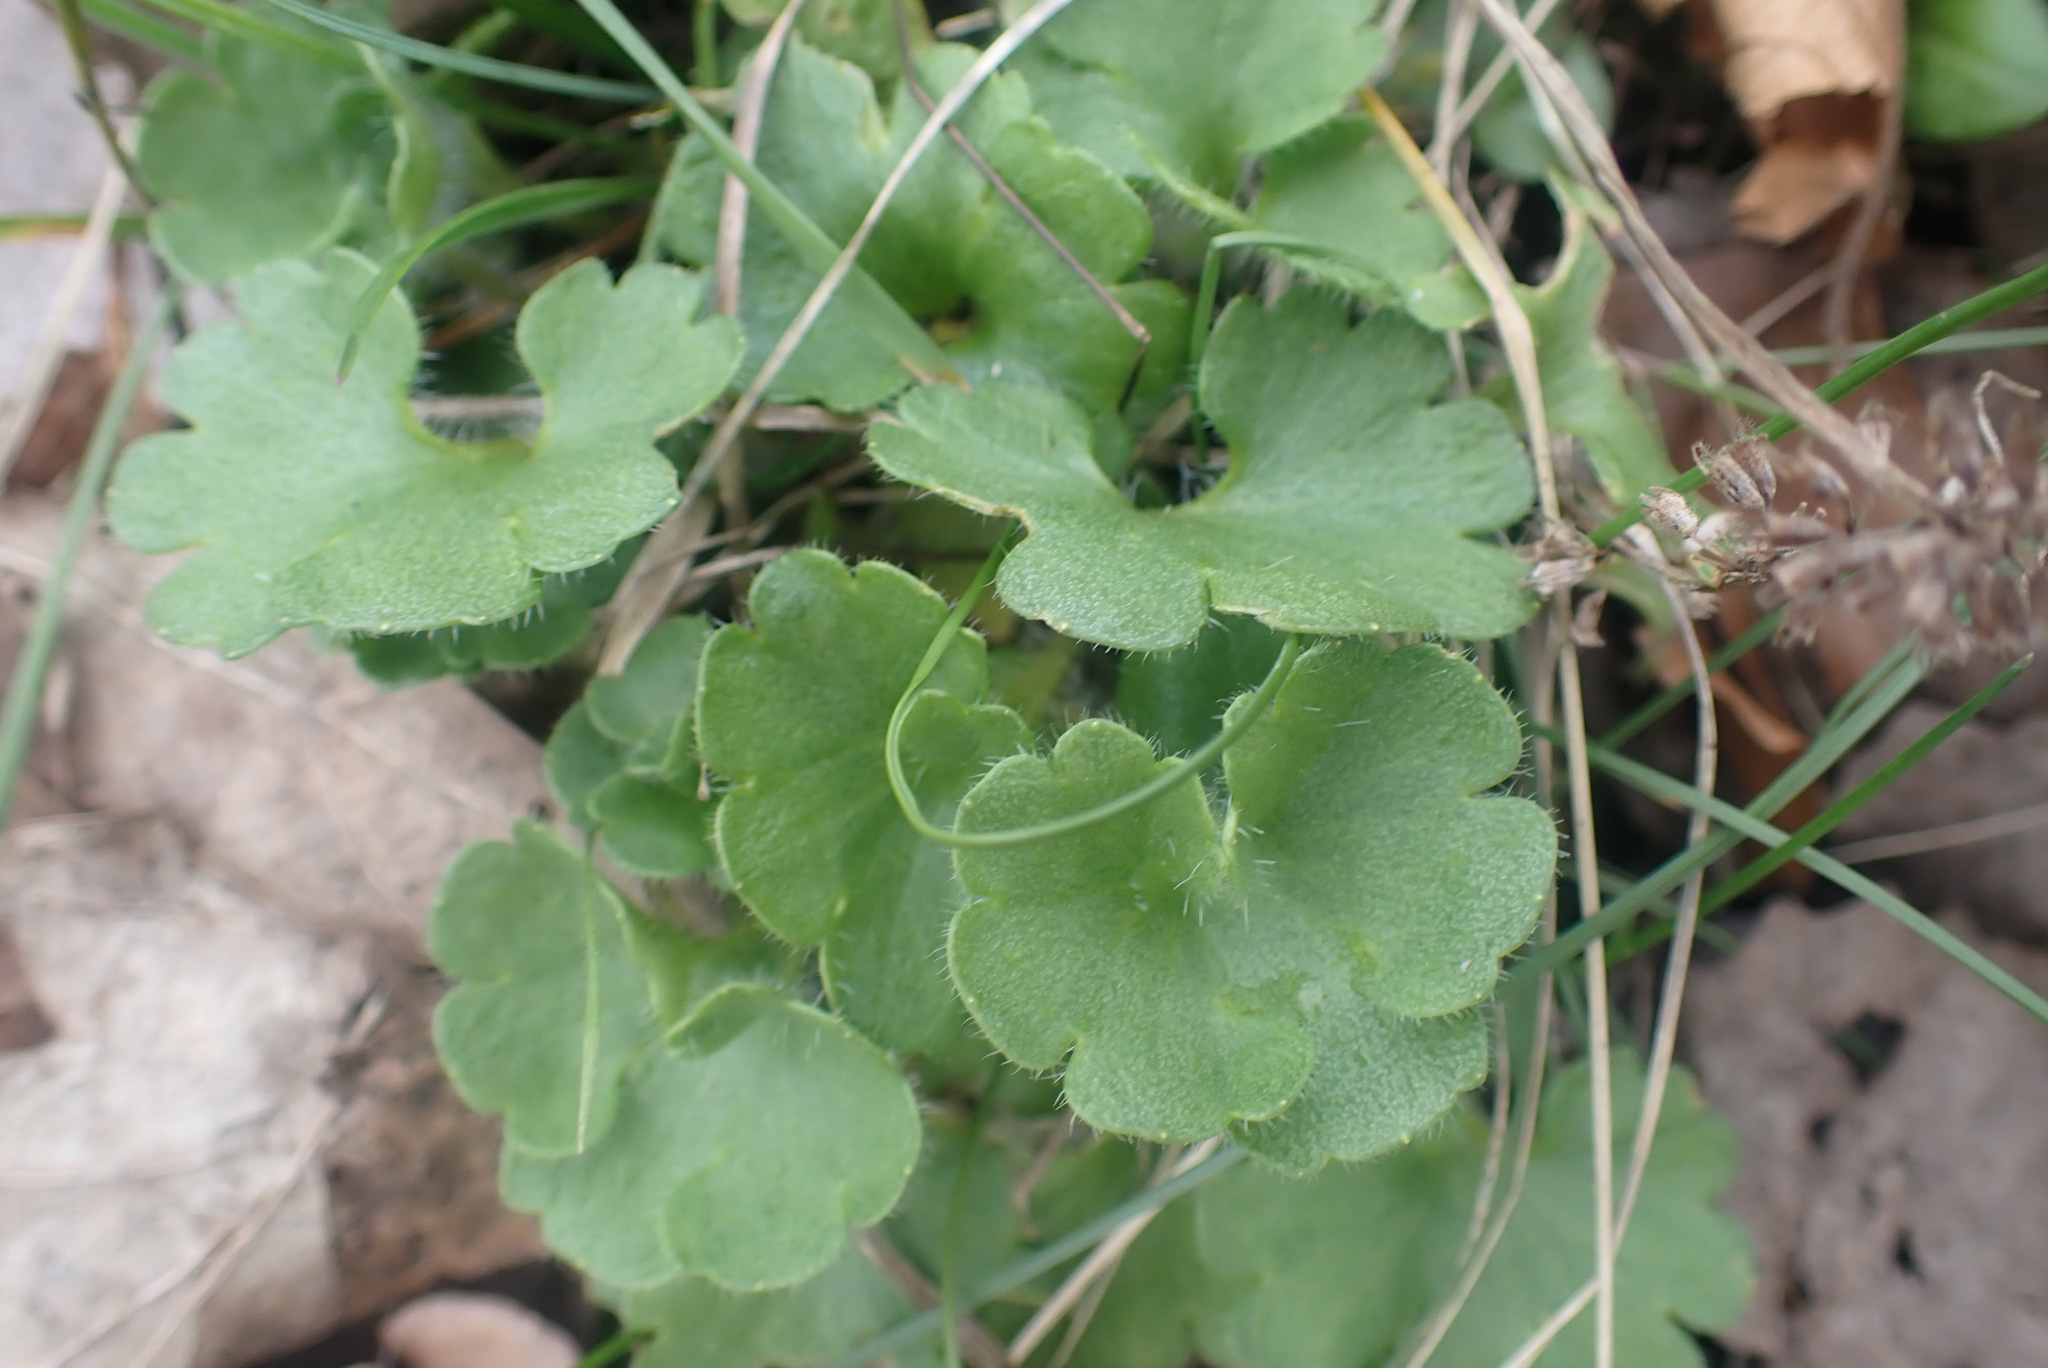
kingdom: Plantae
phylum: Tracheophyta
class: Magnoliopsida
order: Saxifragales
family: Saxifragaceae
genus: Saxifraga
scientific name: Saxifraga granulata
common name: Meadow saxifrage
